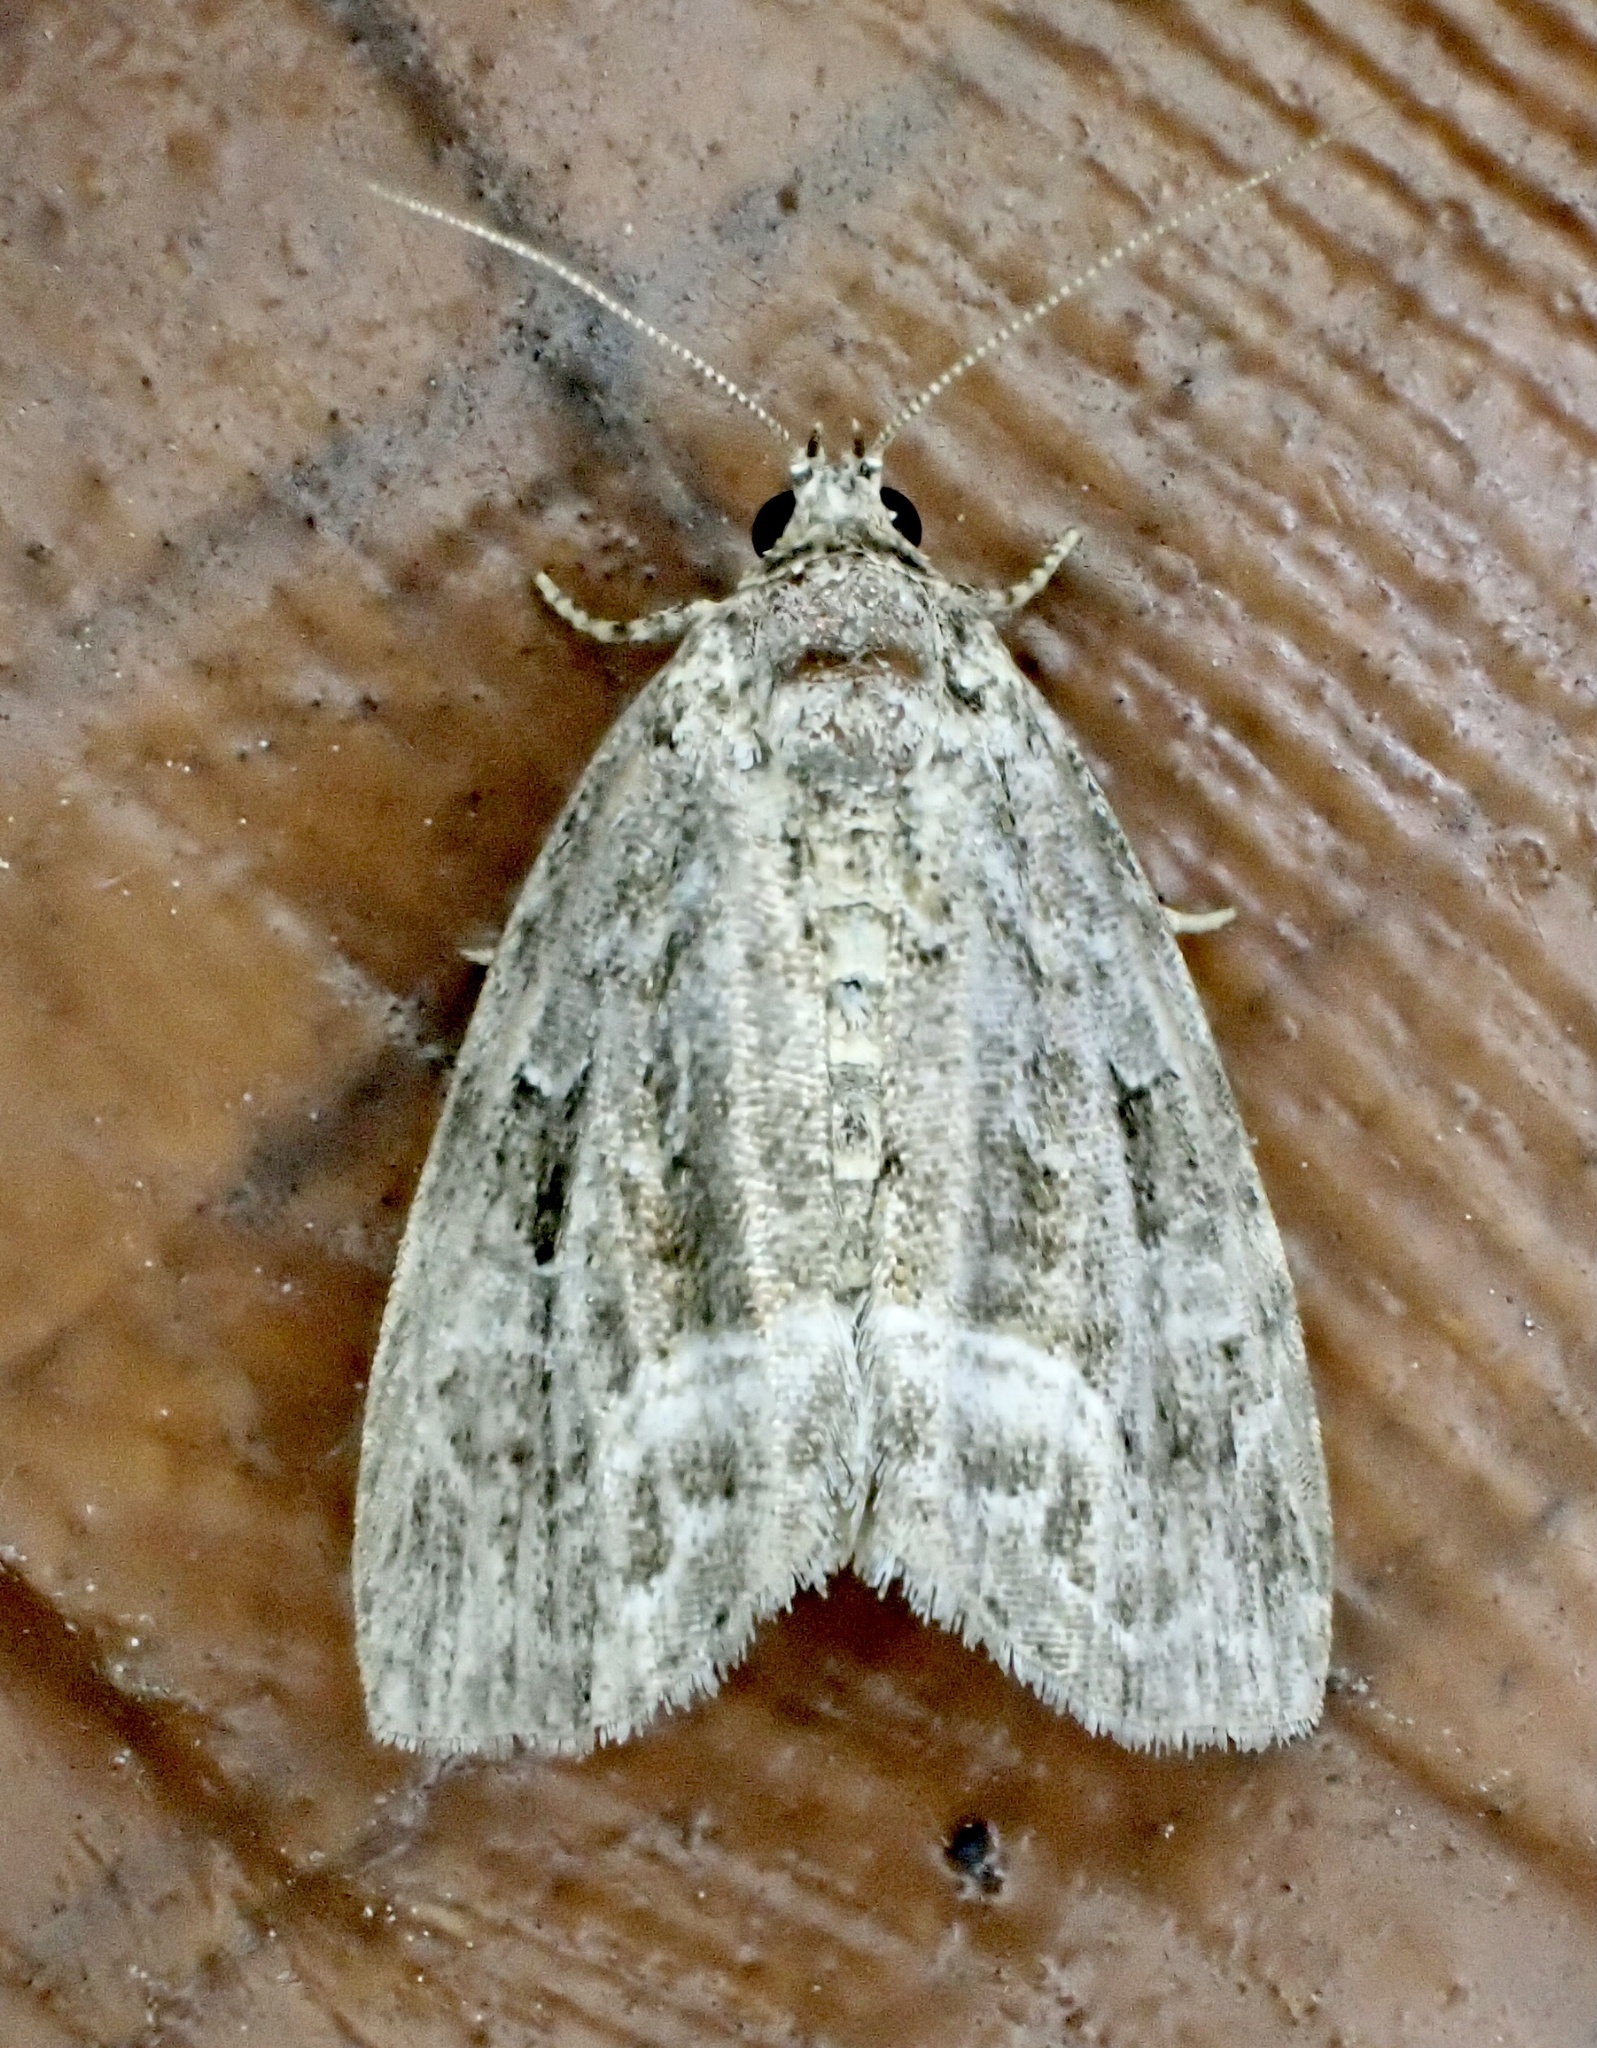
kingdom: Animalia
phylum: Arthropoda
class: Insecta
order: Lepidoptera
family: Noctuidae
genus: Protodeltote
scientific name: Protodeltote muscosula
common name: Large mossy glyph
